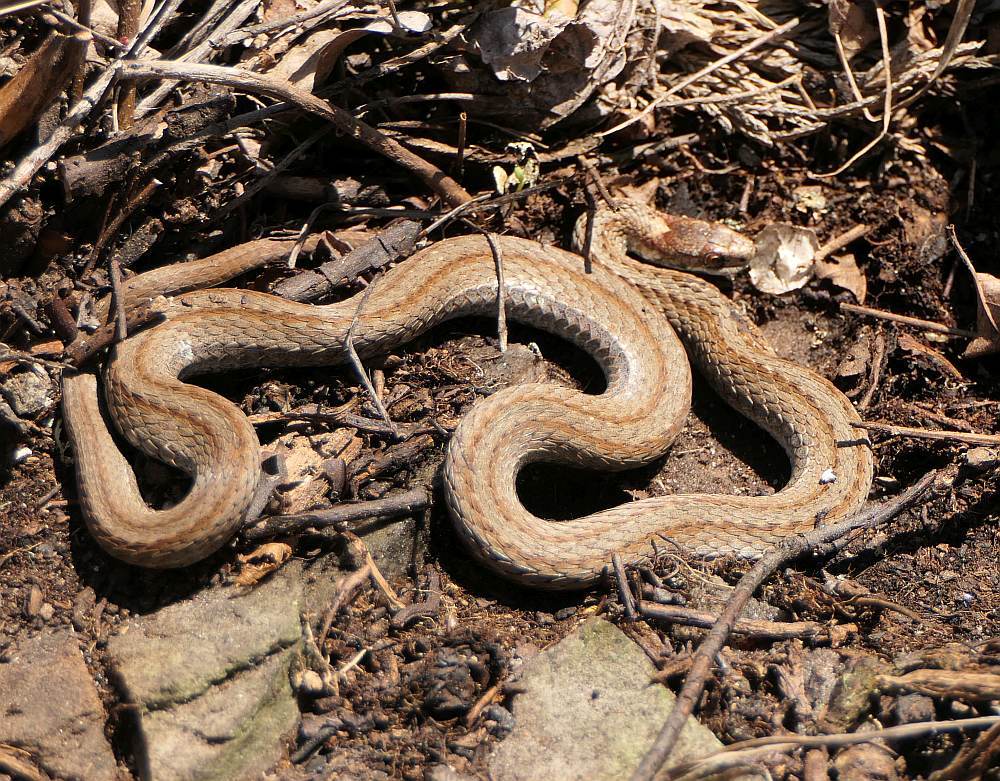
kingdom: Animalia
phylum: Chordata
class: Squamata
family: Colubridae
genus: Storeria
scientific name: Storeria occipitomaculata
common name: Redbelly snake
